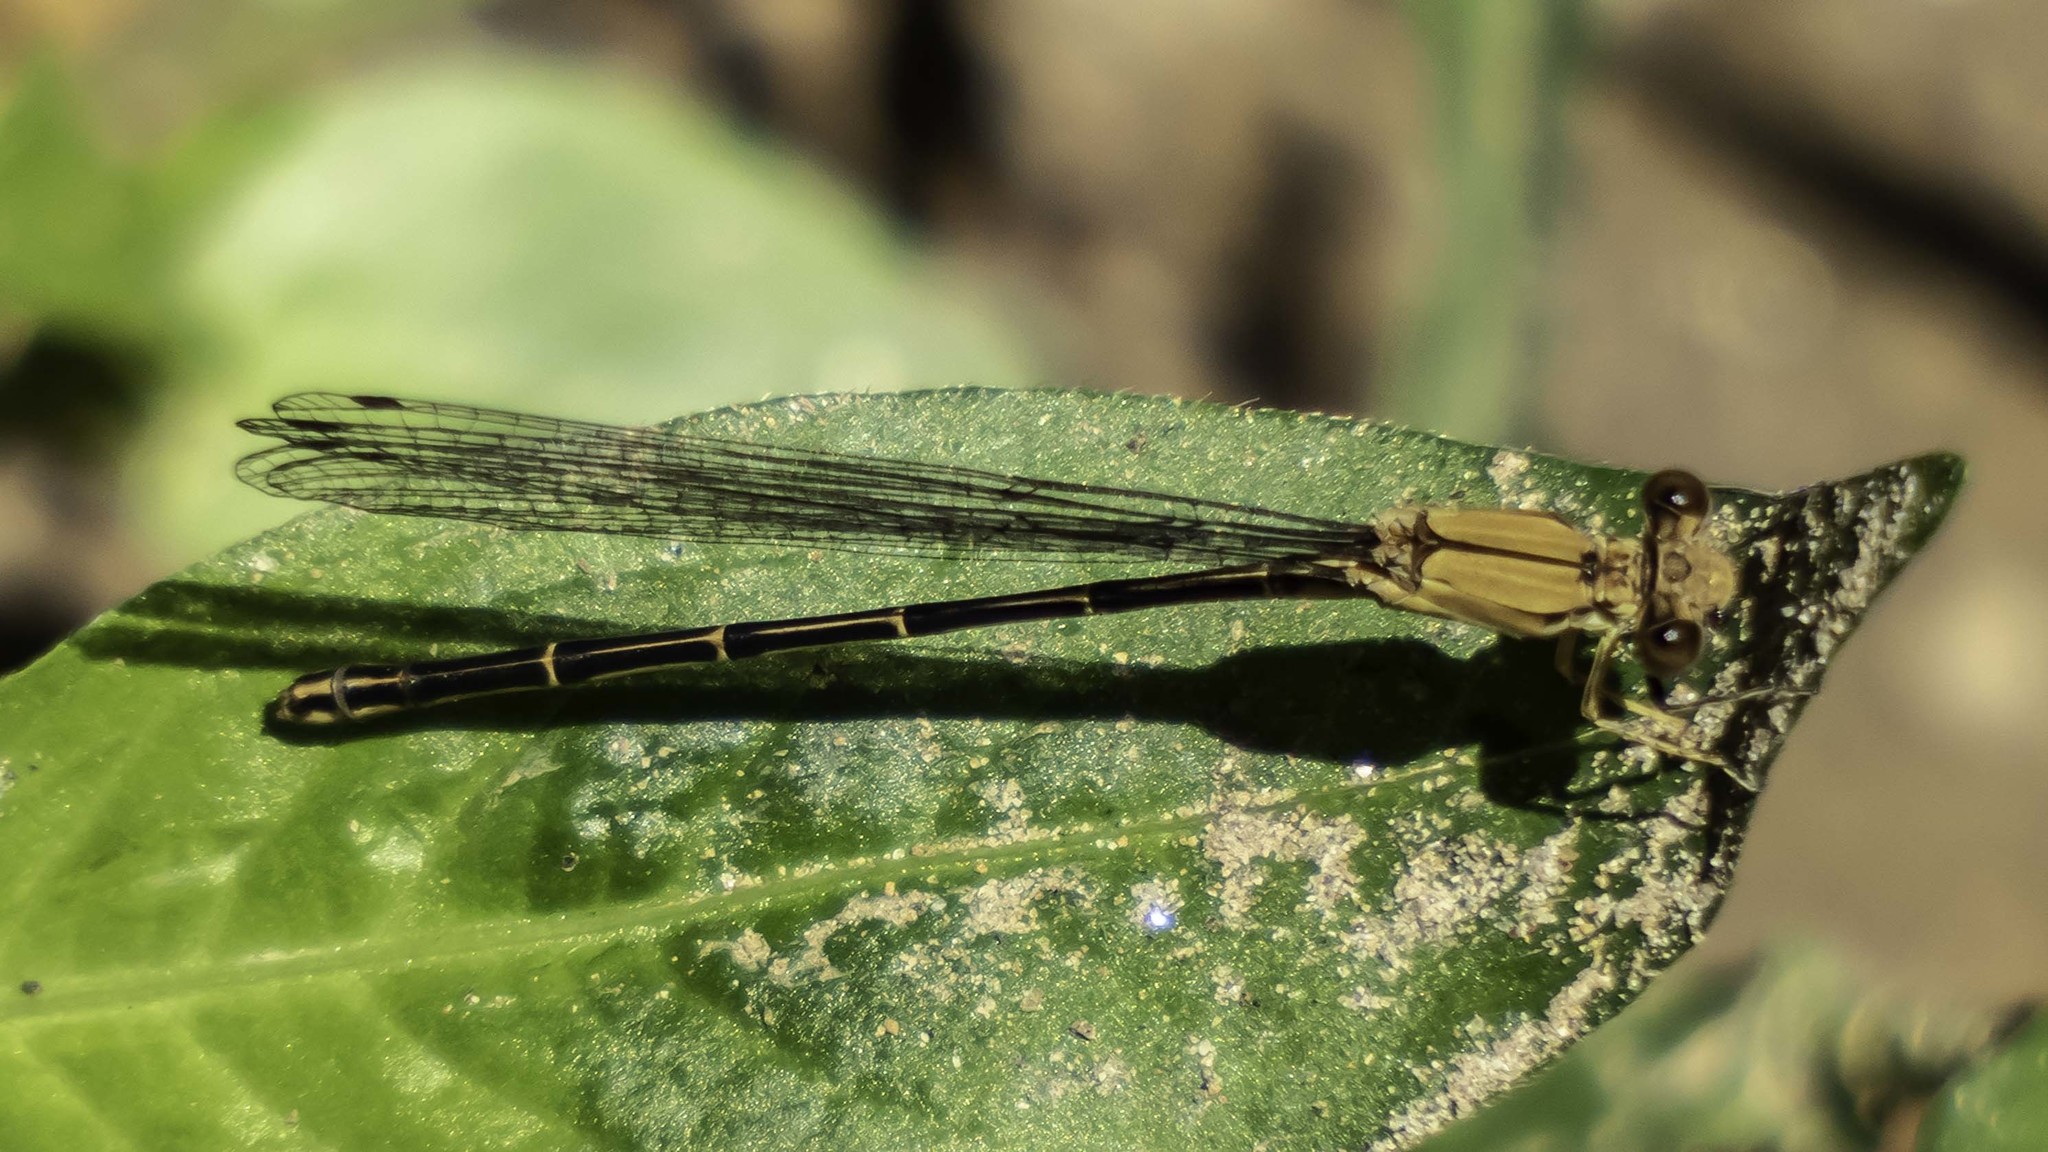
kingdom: Animalia
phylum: Arthropoda
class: Insecta
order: Odonata
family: Coenagrionidae
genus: Argia
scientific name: Argia apicalis
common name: Blue-fronted dancer
